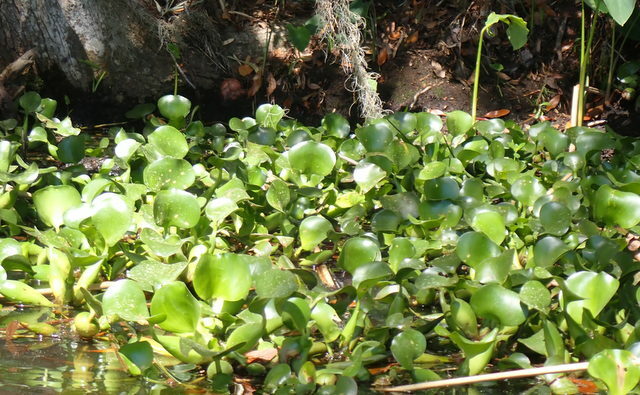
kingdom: Plantae
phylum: Tracheophyta
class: Liliopsida
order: Commelinales
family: Pontederiaceae
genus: Pontederia
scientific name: Pontederia crassipes
